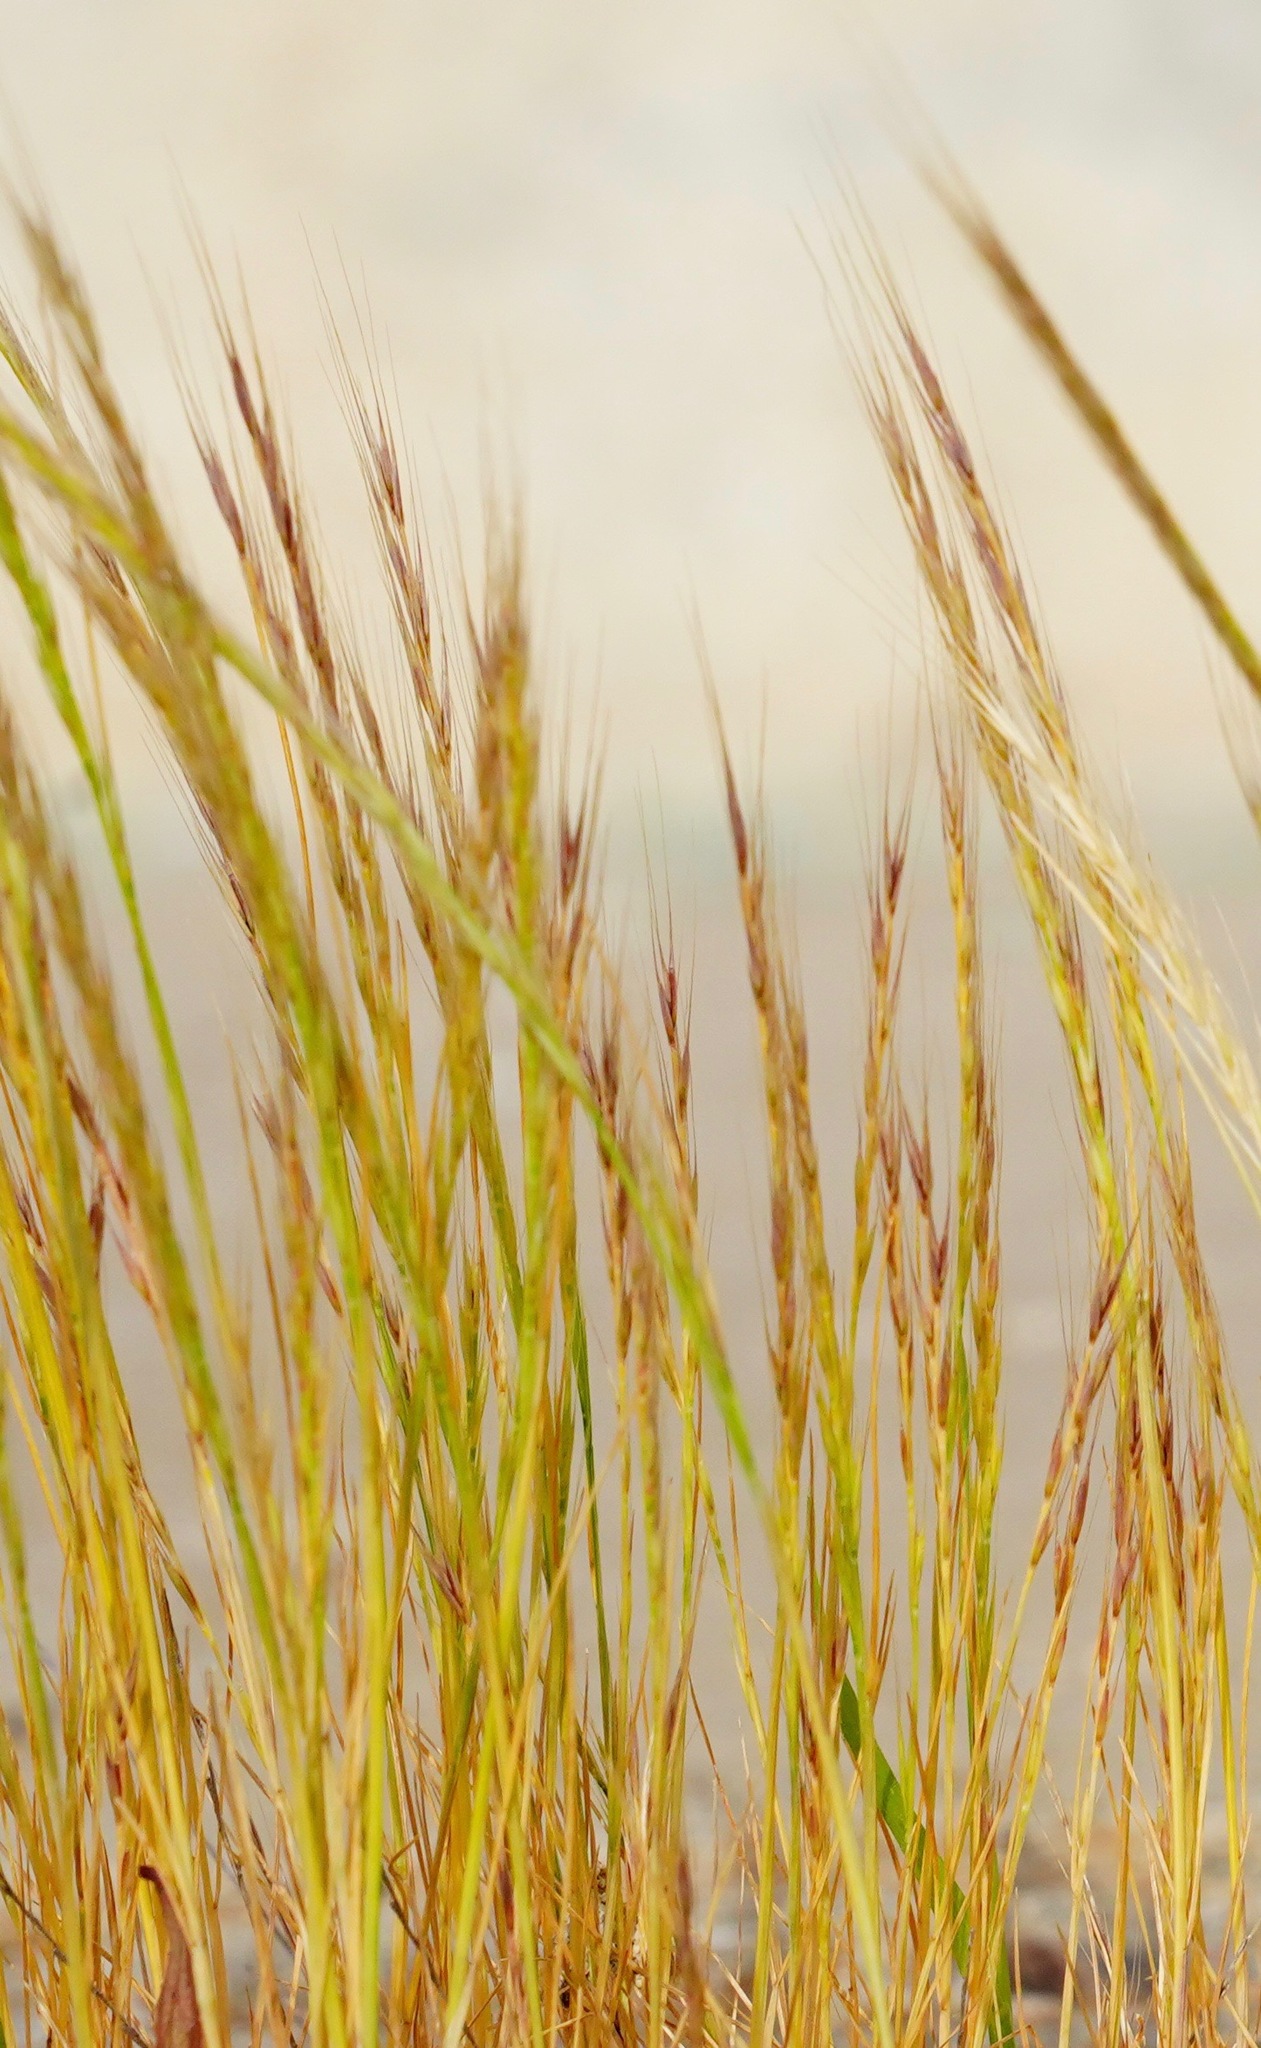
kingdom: Plantae
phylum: Tracheophyta
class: Liliopsida
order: Poales
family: Poaceae
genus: Festuca
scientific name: Festuca myuros
